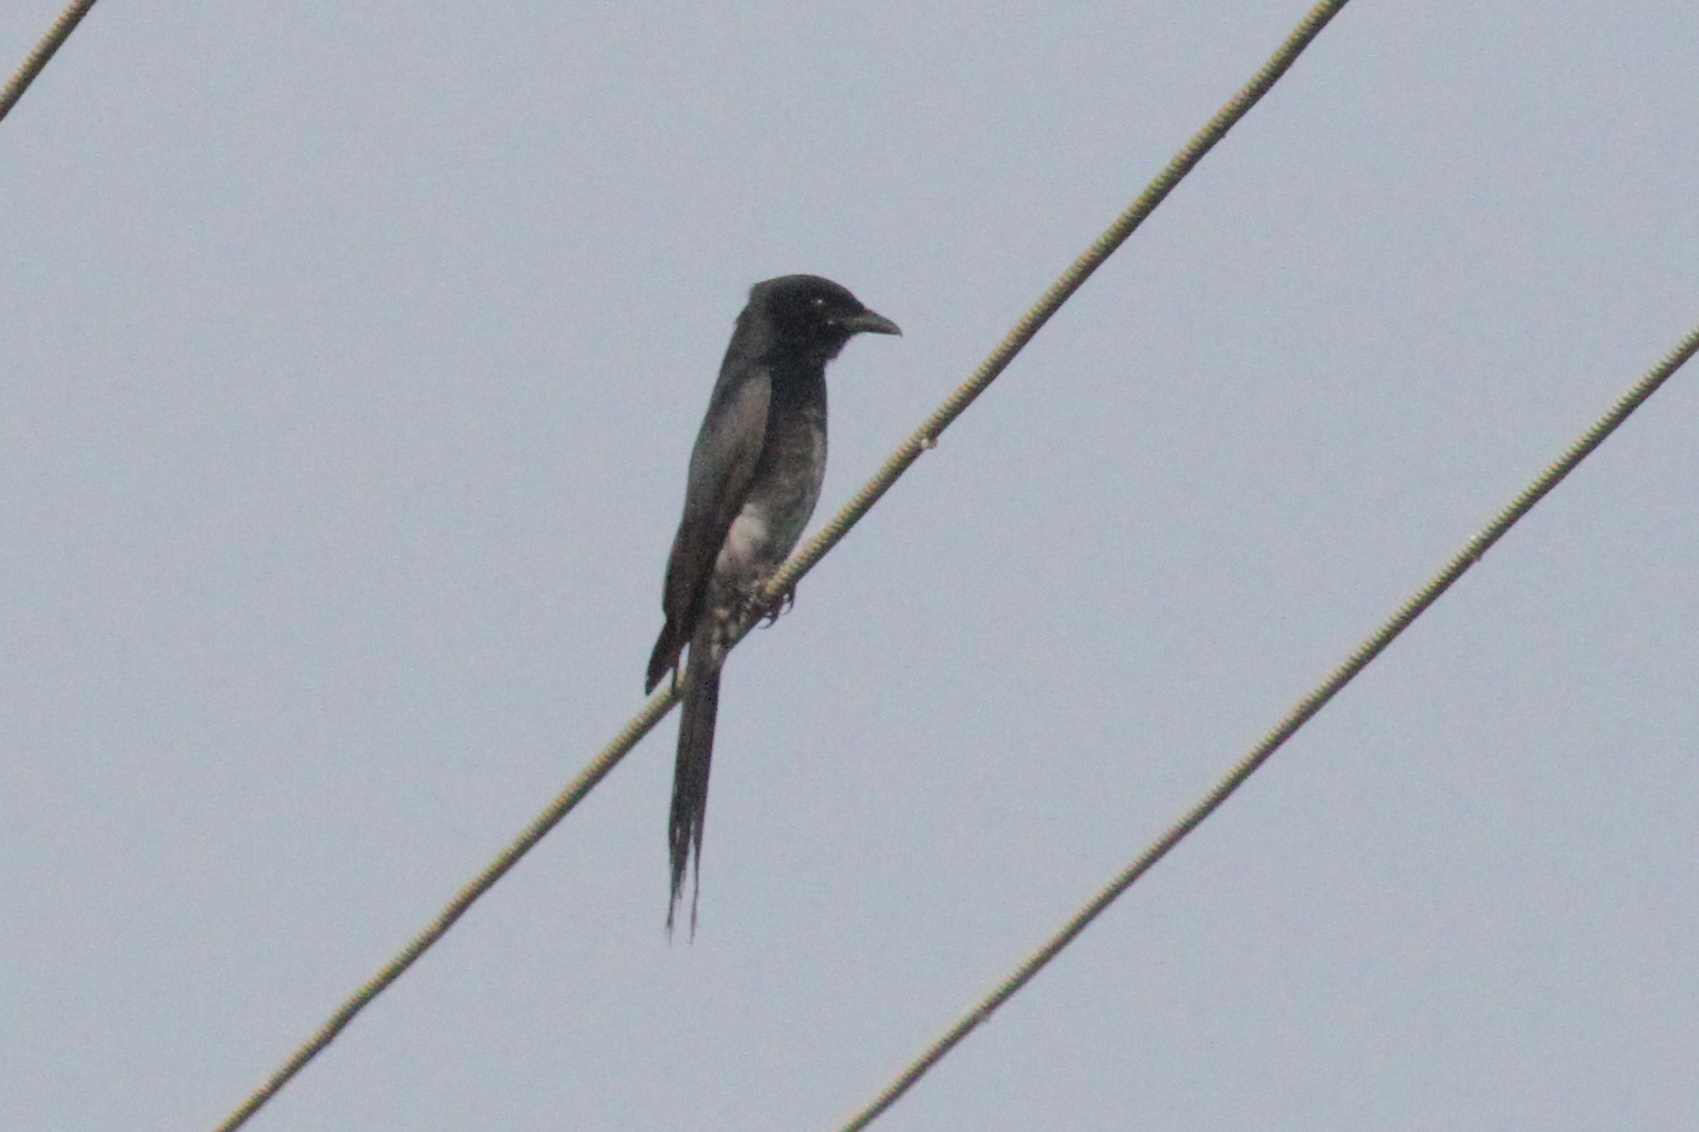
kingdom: Animalia
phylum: Chordata
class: Aves
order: Passeriformes
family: Dicruridae
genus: Dicrurus
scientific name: Dicrurus macrocercus
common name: Black drongo
